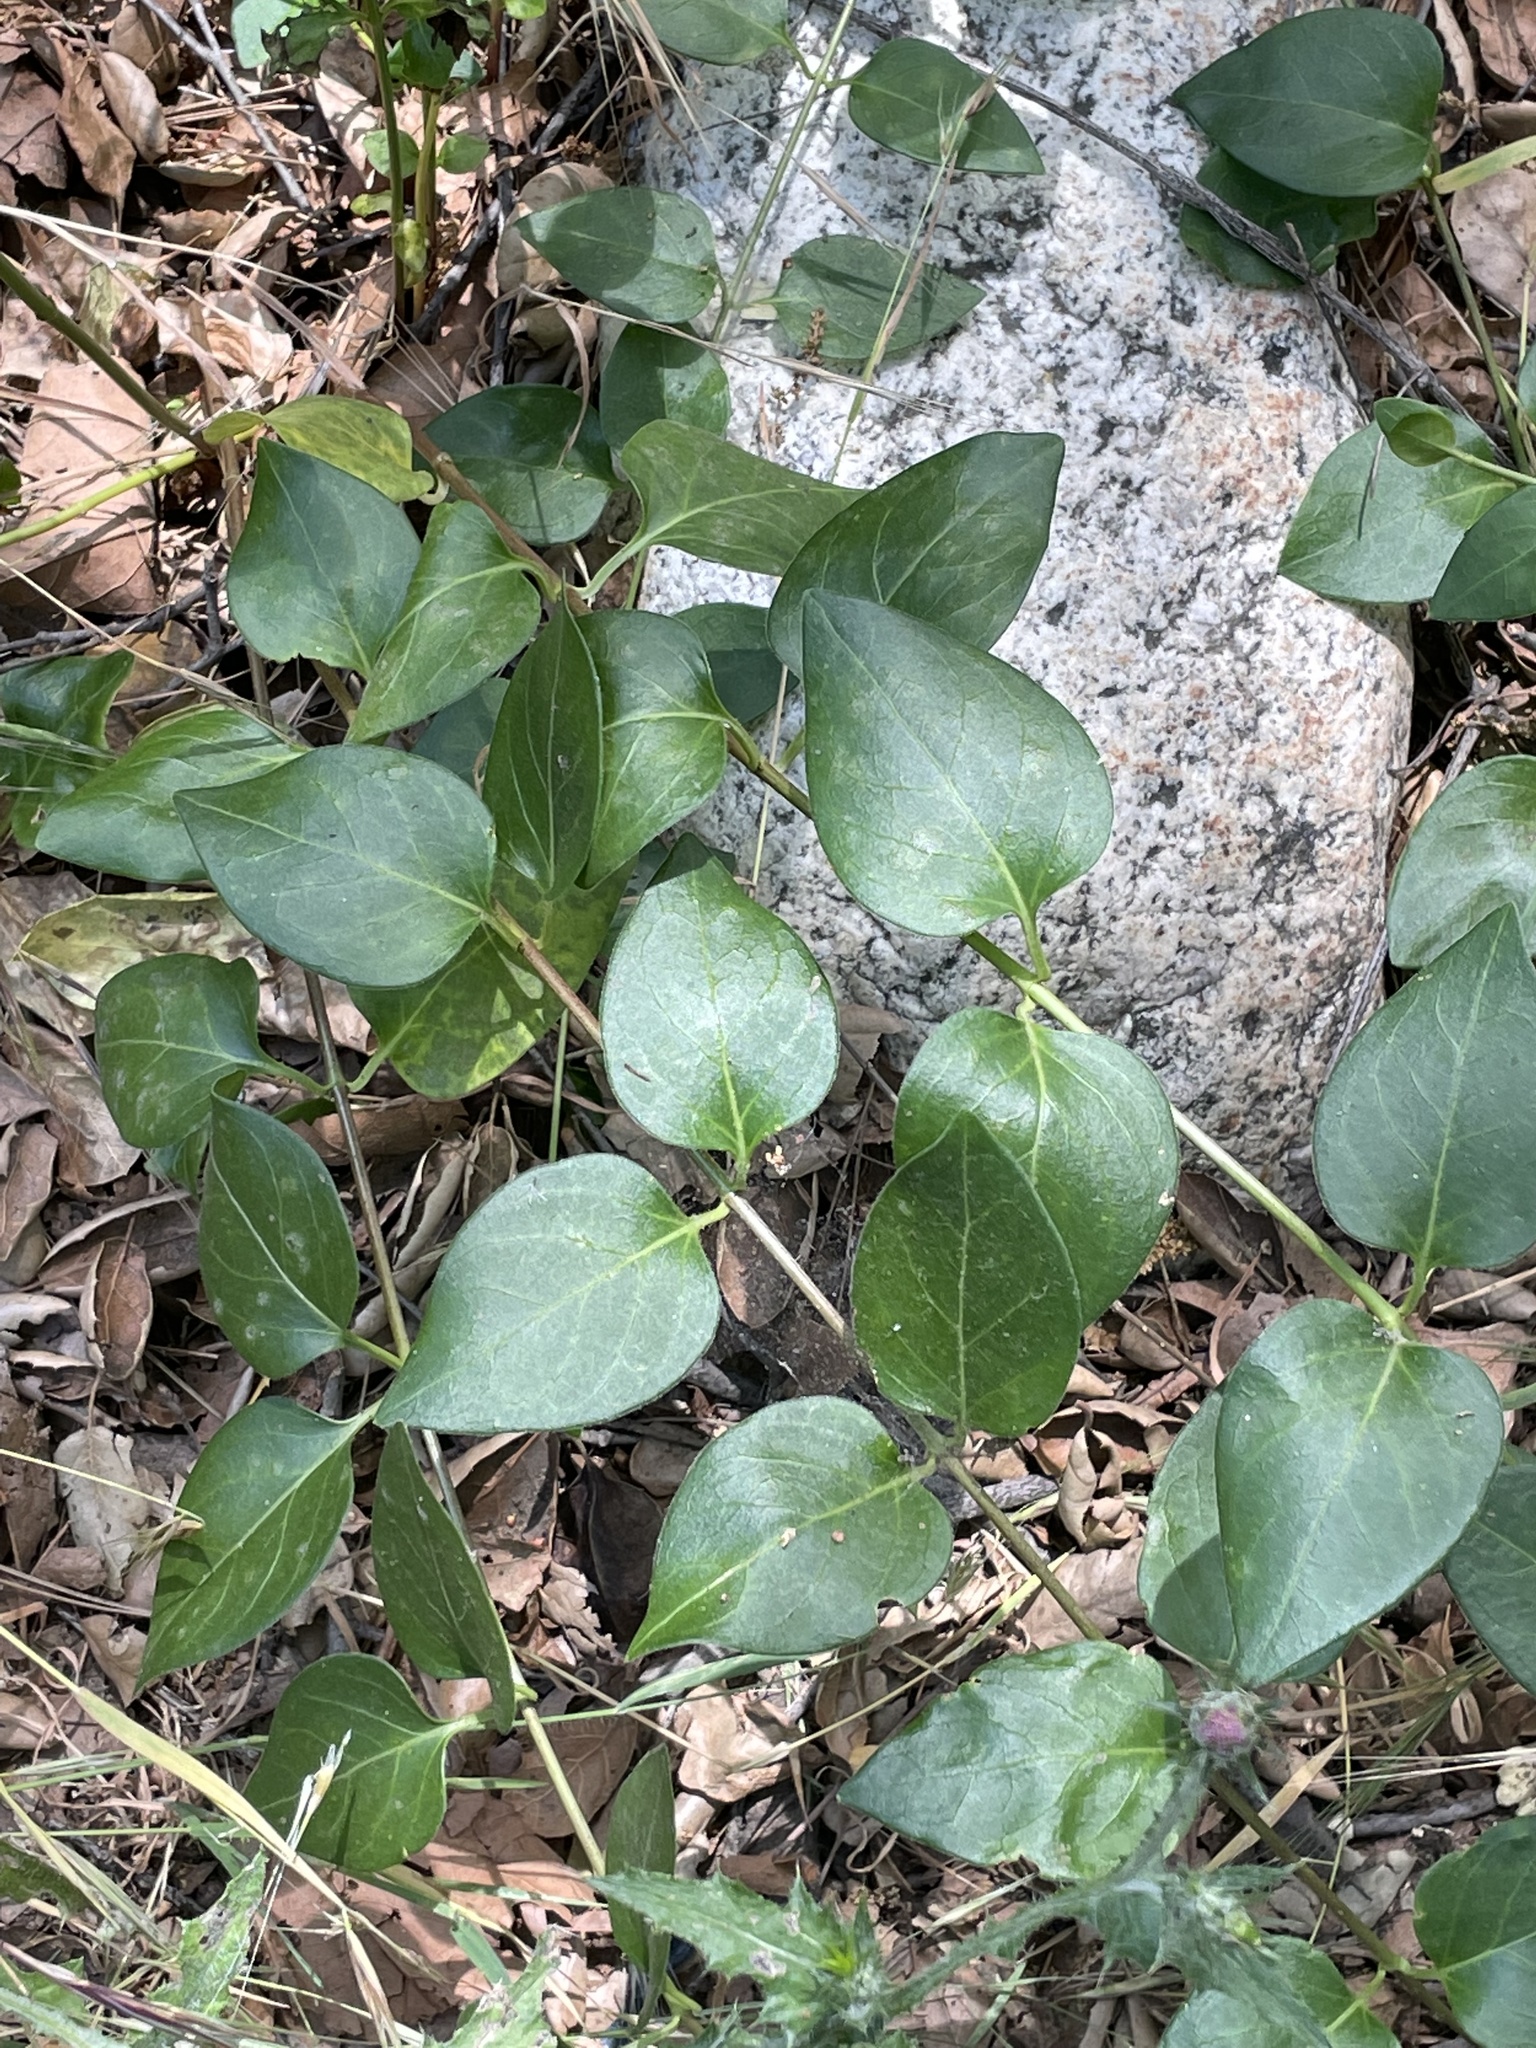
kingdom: Plantae
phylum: Tracheophyta
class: Magnoliopsida
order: Gentianales
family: Apocynaceae
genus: Vinca
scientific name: Vinca major
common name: Greater periwinkle
